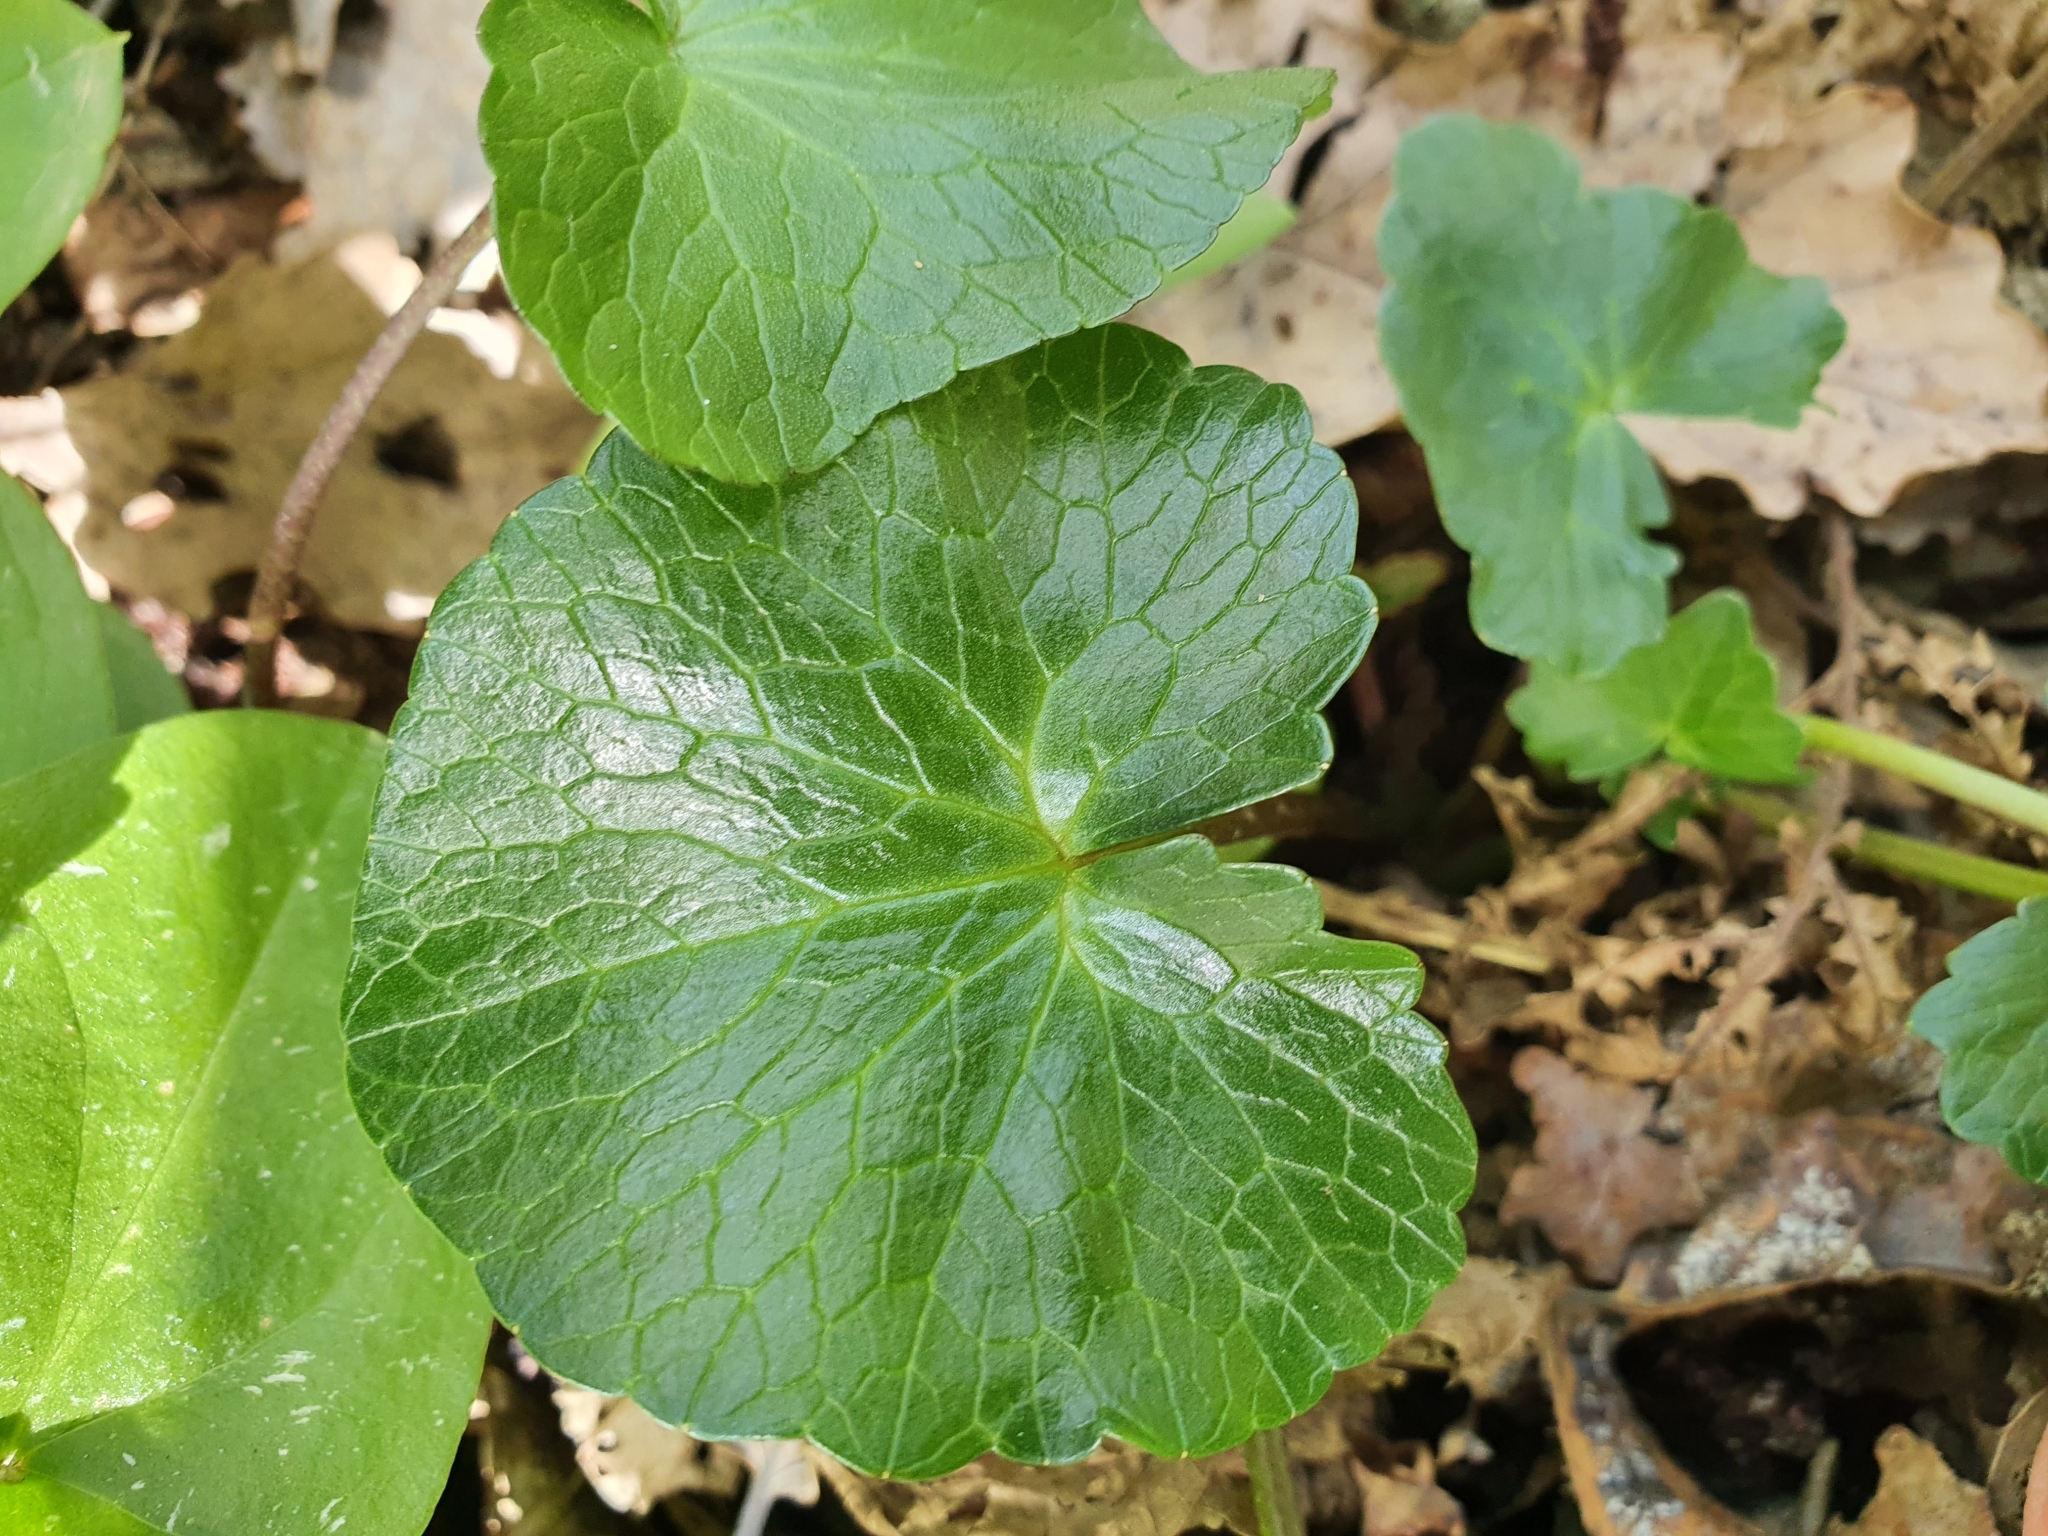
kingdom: Plantae
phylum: Tracheophyta
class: Magnoliopsida
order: Ranunculales
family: Ranunculaceae
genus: Ficaria
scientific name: Ficaria verna
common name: Lesser celandine
